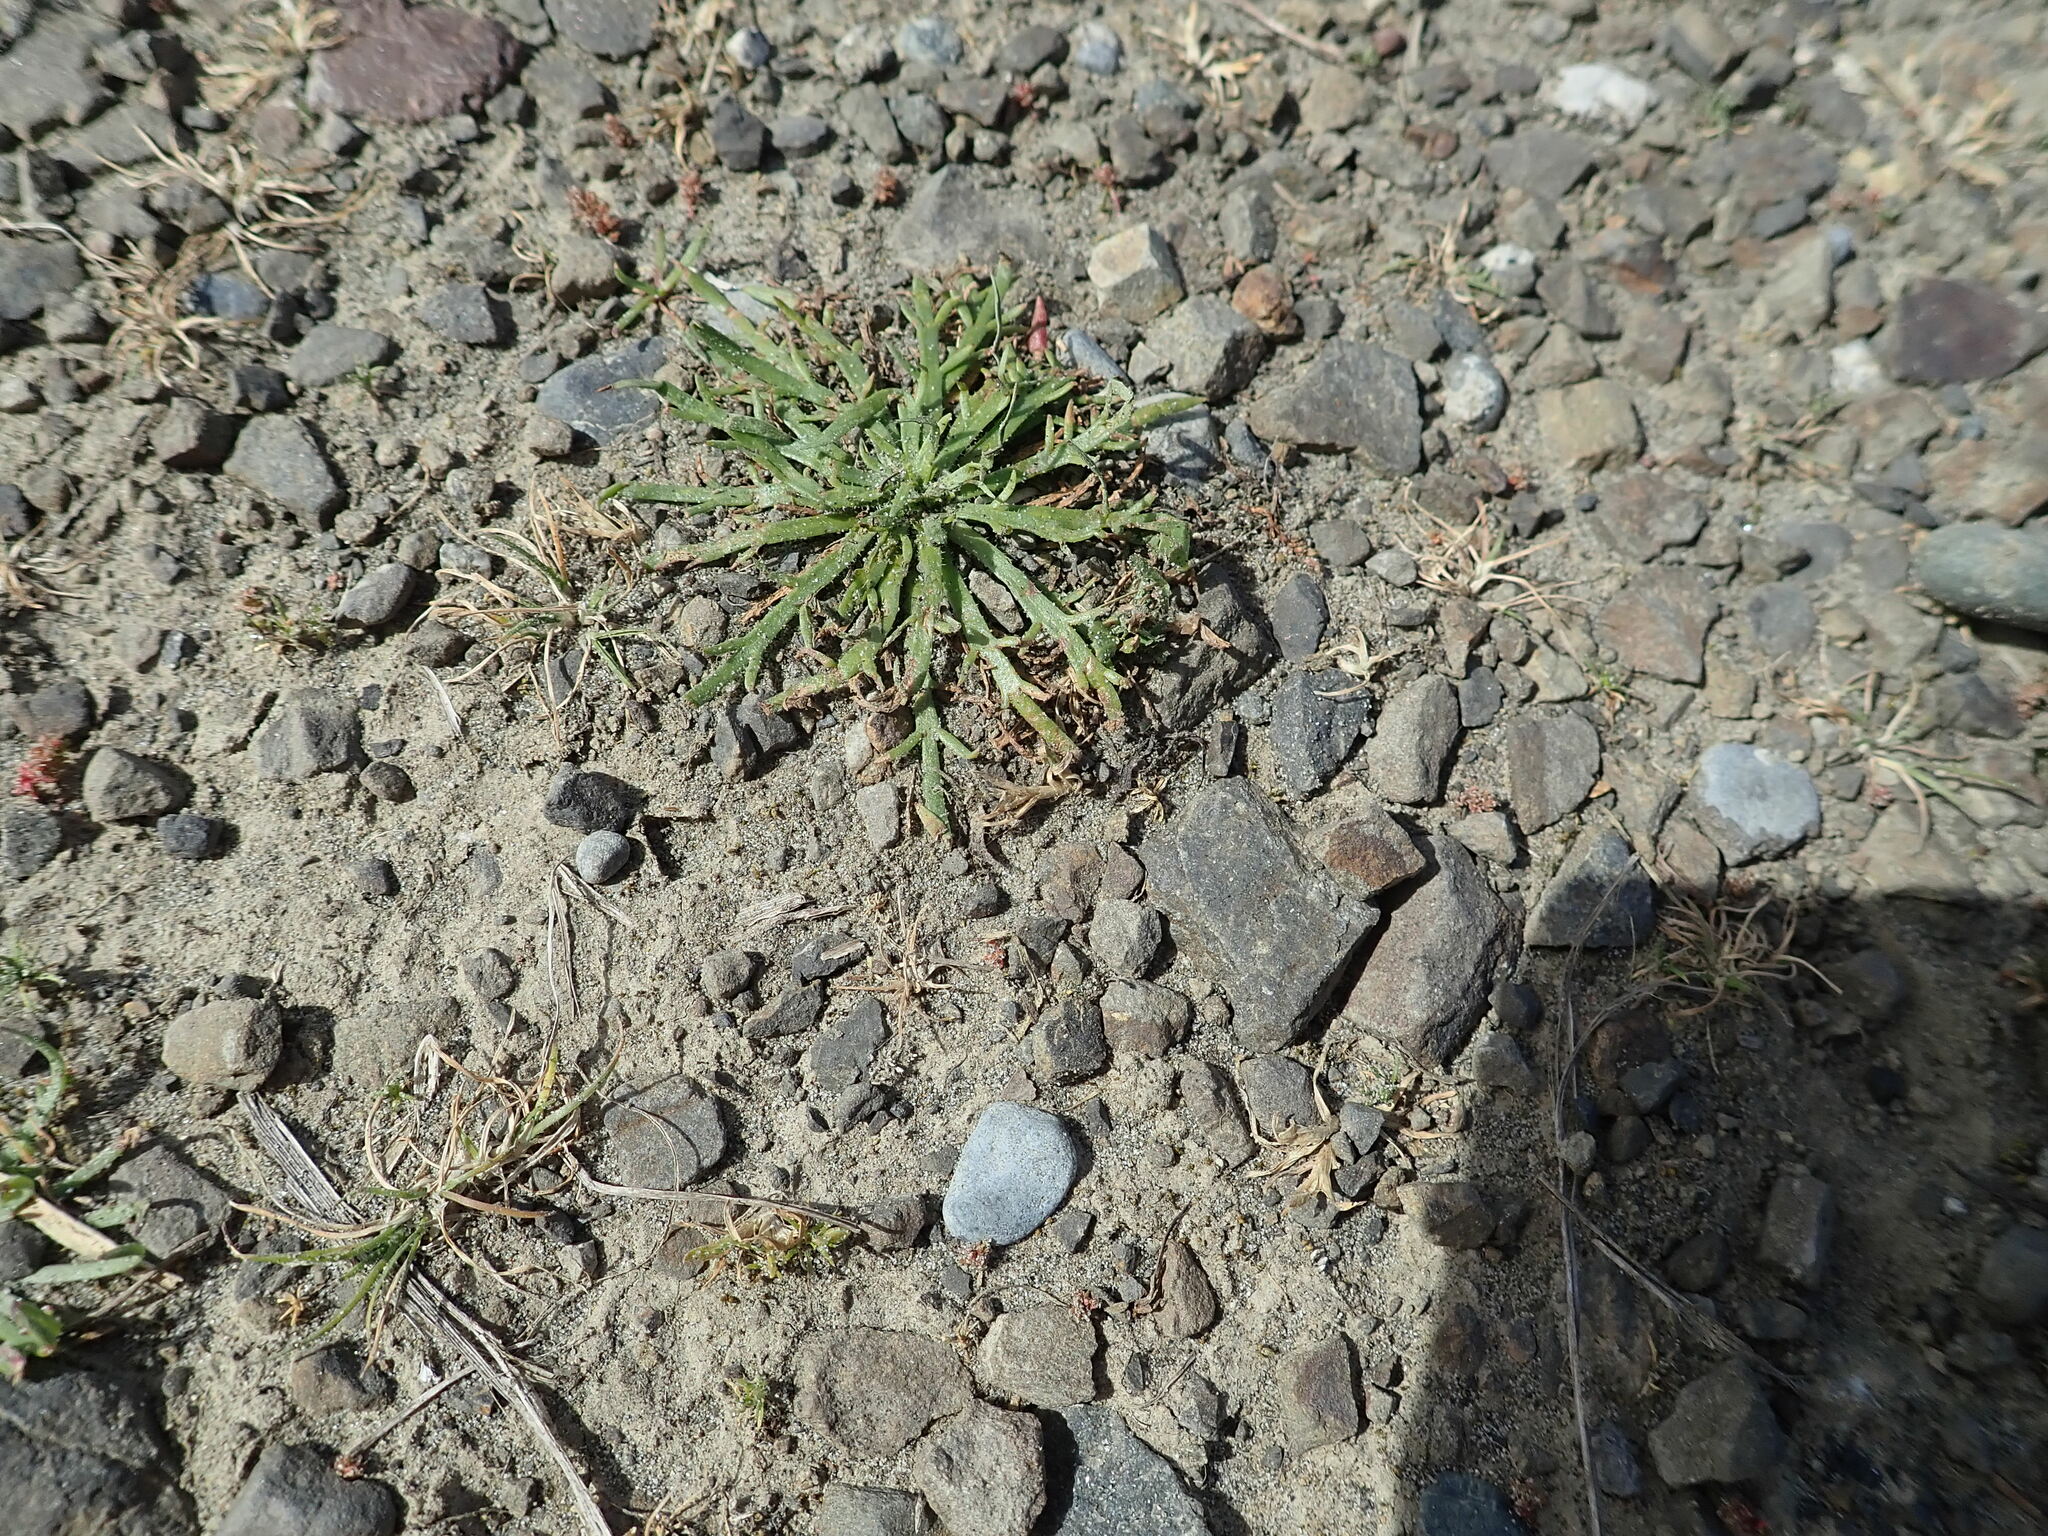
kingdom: Plantae
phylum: Tracheophyta
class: Magnoliopsida
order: Lamiales
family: Plantaginaceae
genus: Plantago
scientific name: Plantago coronopus
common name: Buck's-horn plantain
